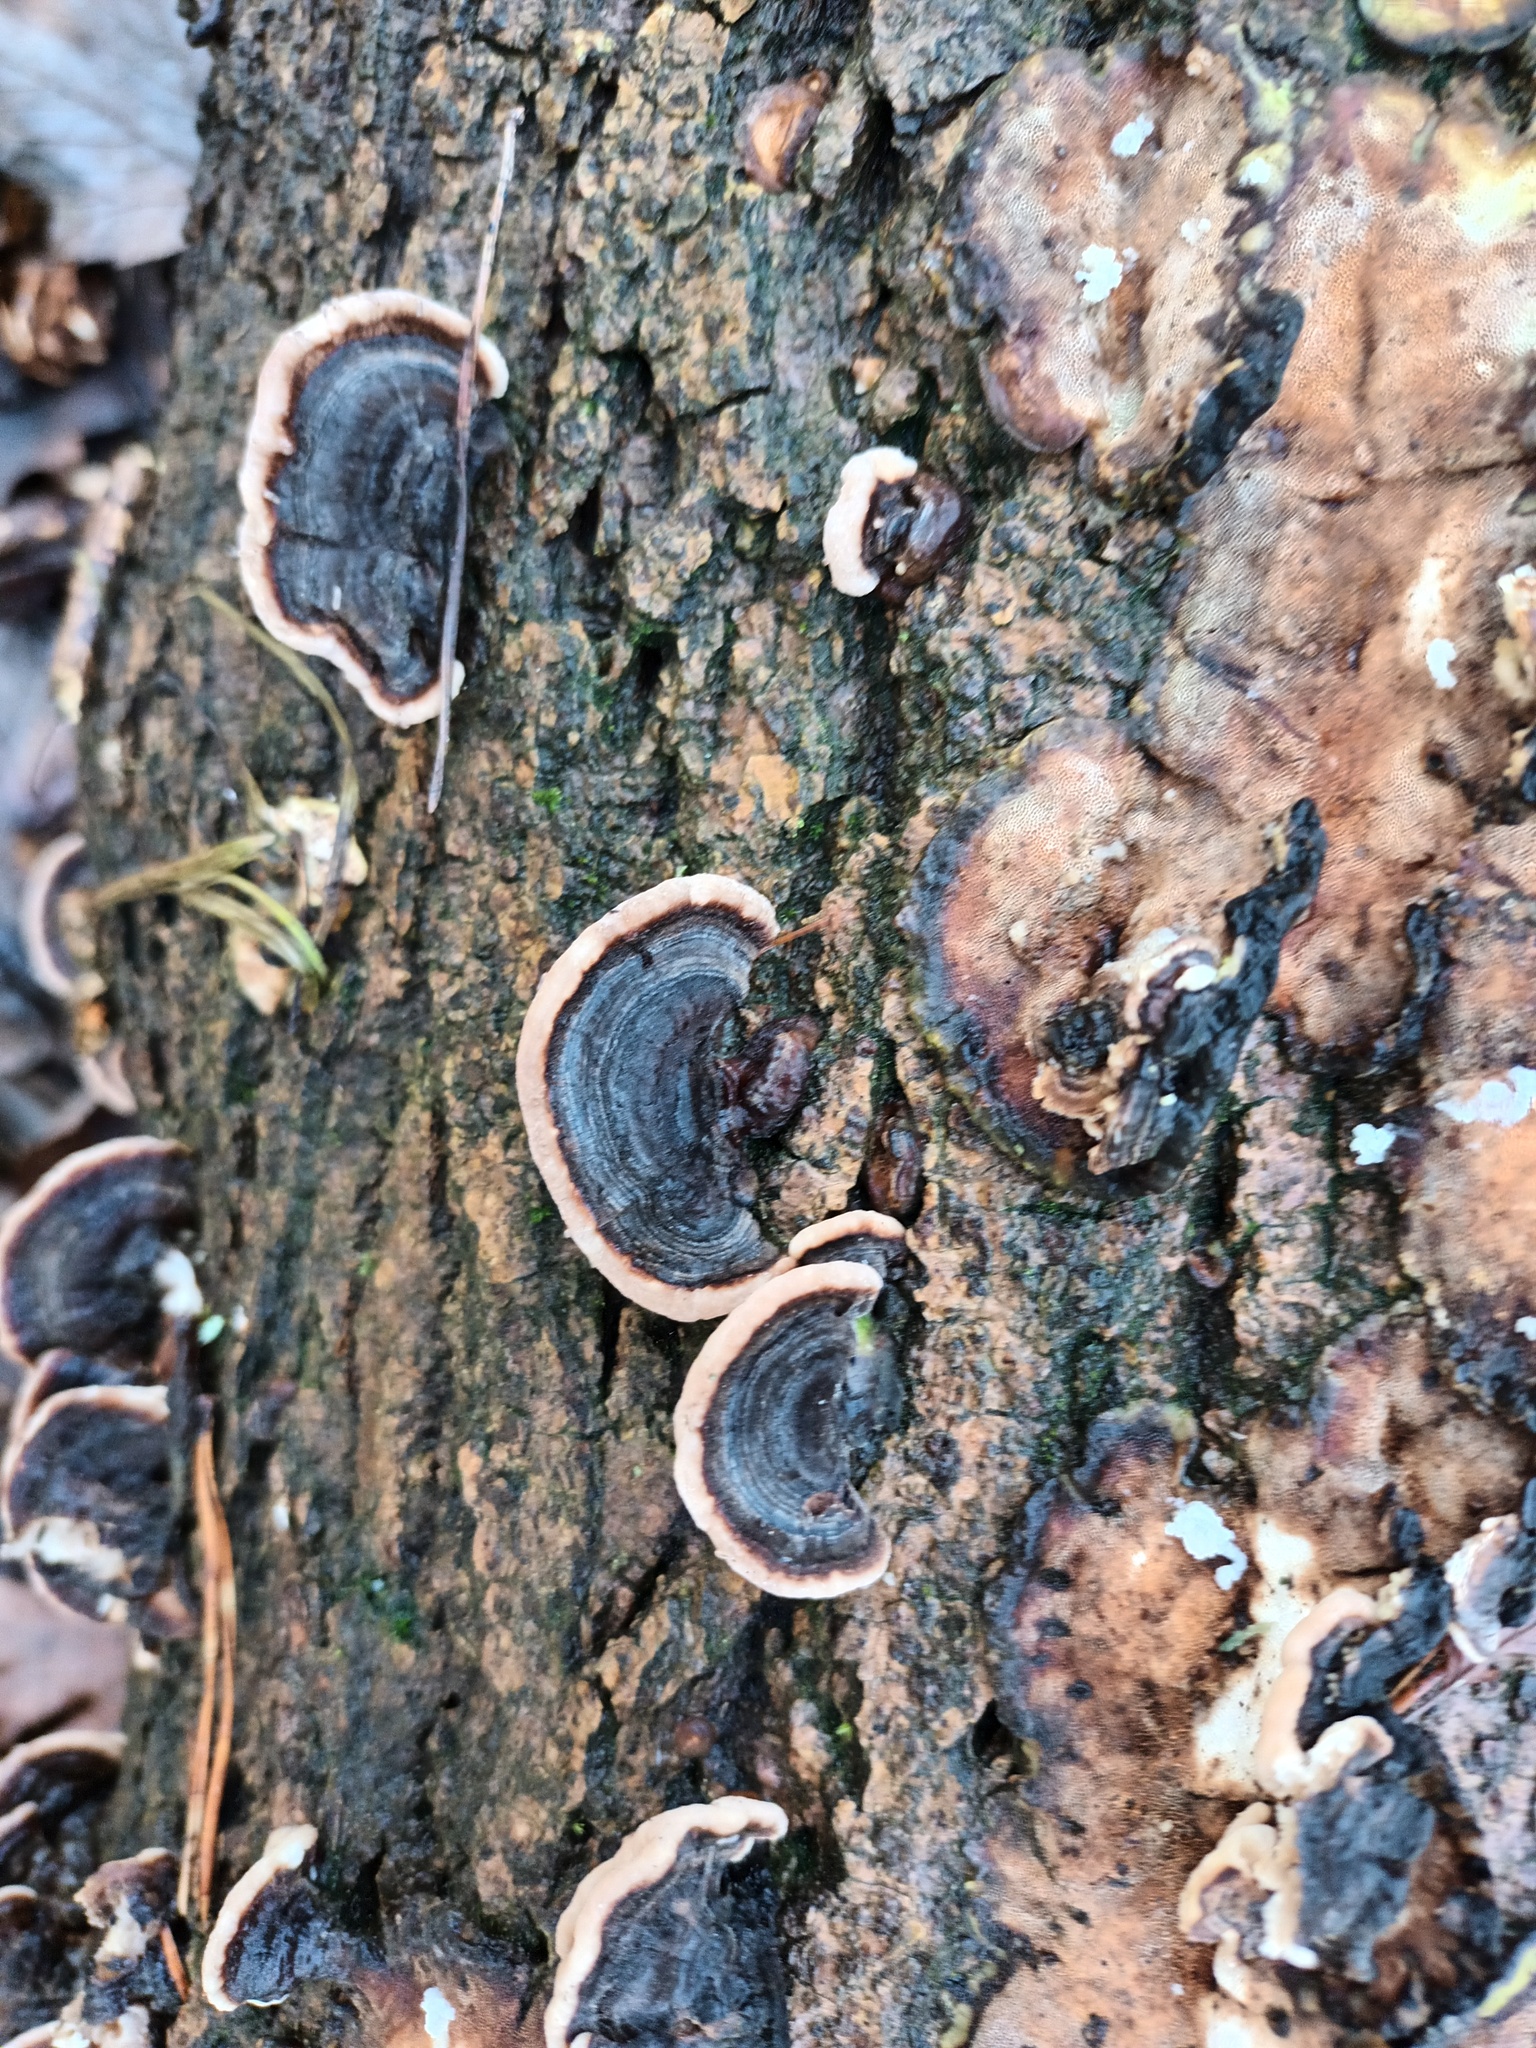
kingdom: Fungi
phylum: Basidiomycota
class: Agaricomycetes
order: Polyporales
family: Polyporaceae
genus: Trametes
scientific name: Trametes versicolor
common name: Turkeytail
